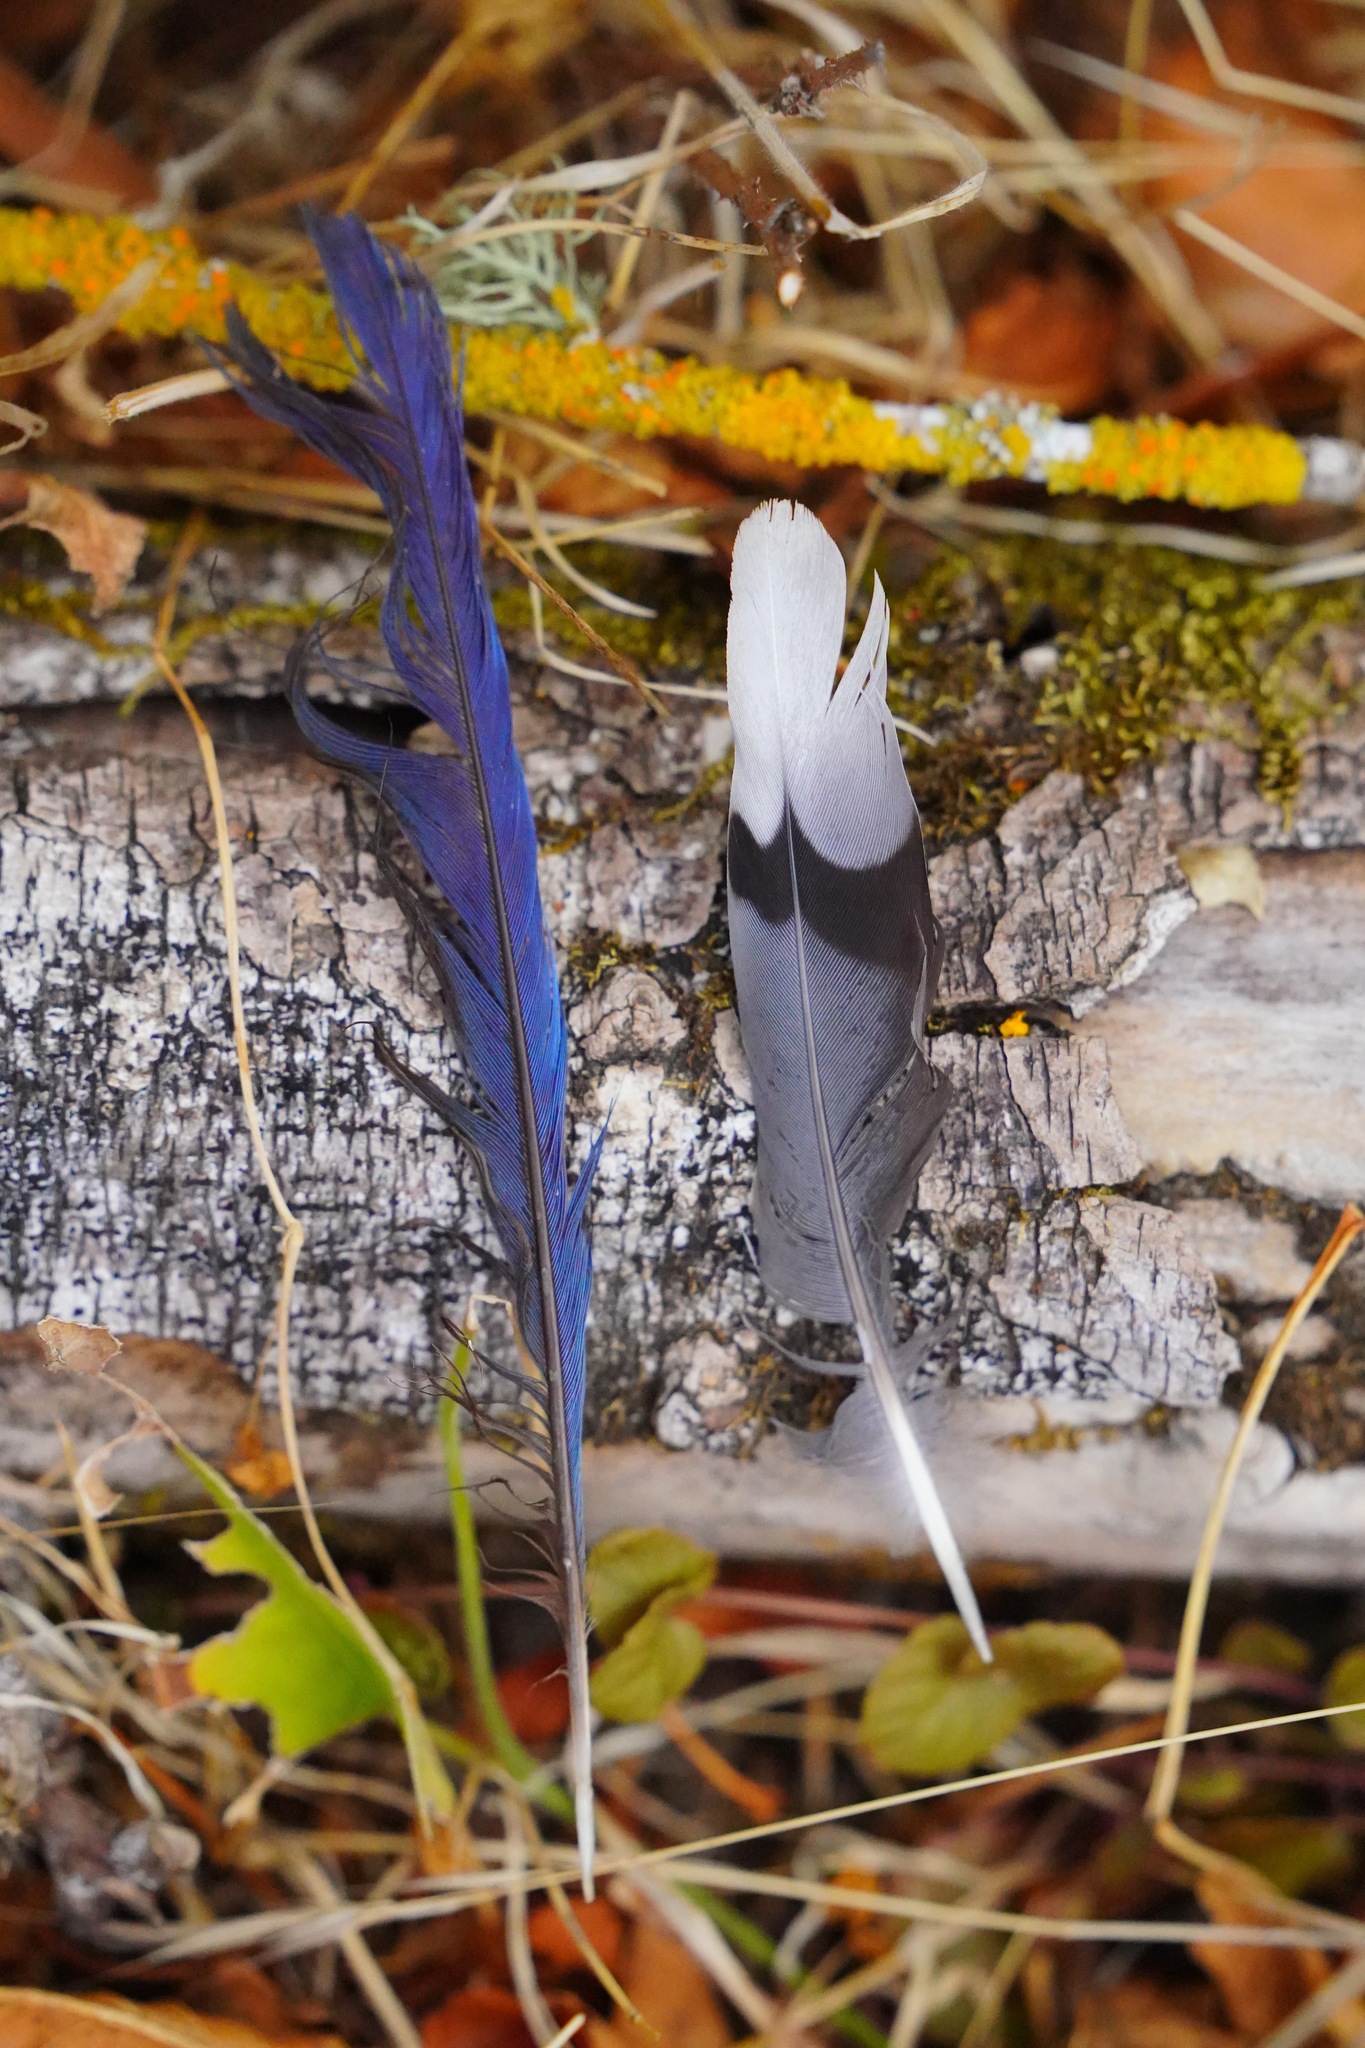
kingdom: Animalia
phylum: Chordata
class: Aves
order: Passeriformes
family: Corvidae
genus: Cyanocitta
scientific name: Cyanocitta stelleri
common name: Steller's jay
